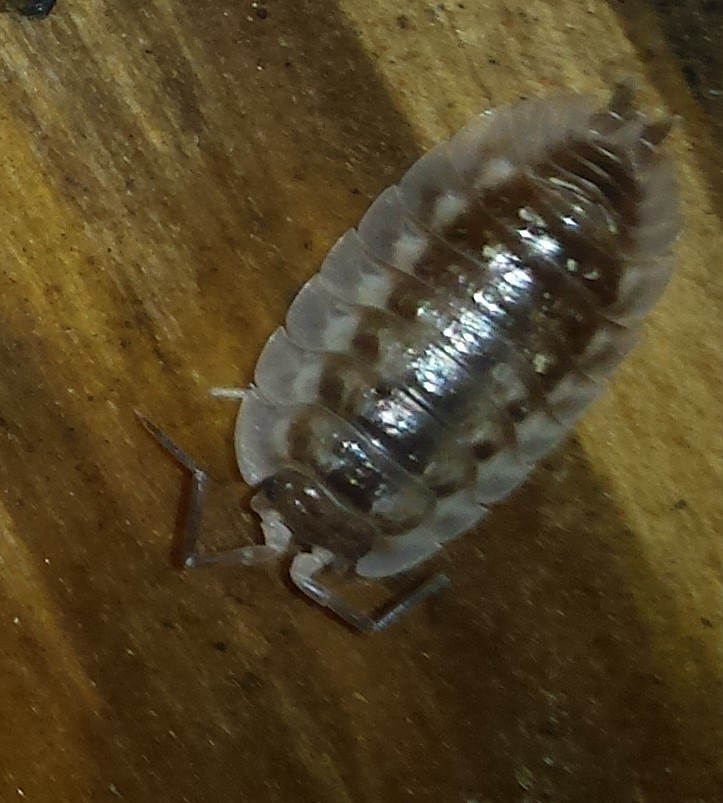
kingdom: Animalia
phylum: Arthropoda
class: Malacostraca
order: Isopoda
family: Oniscidae
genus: Oniscus
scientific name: Oniscus asellus
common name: Common shiny woodlouse
